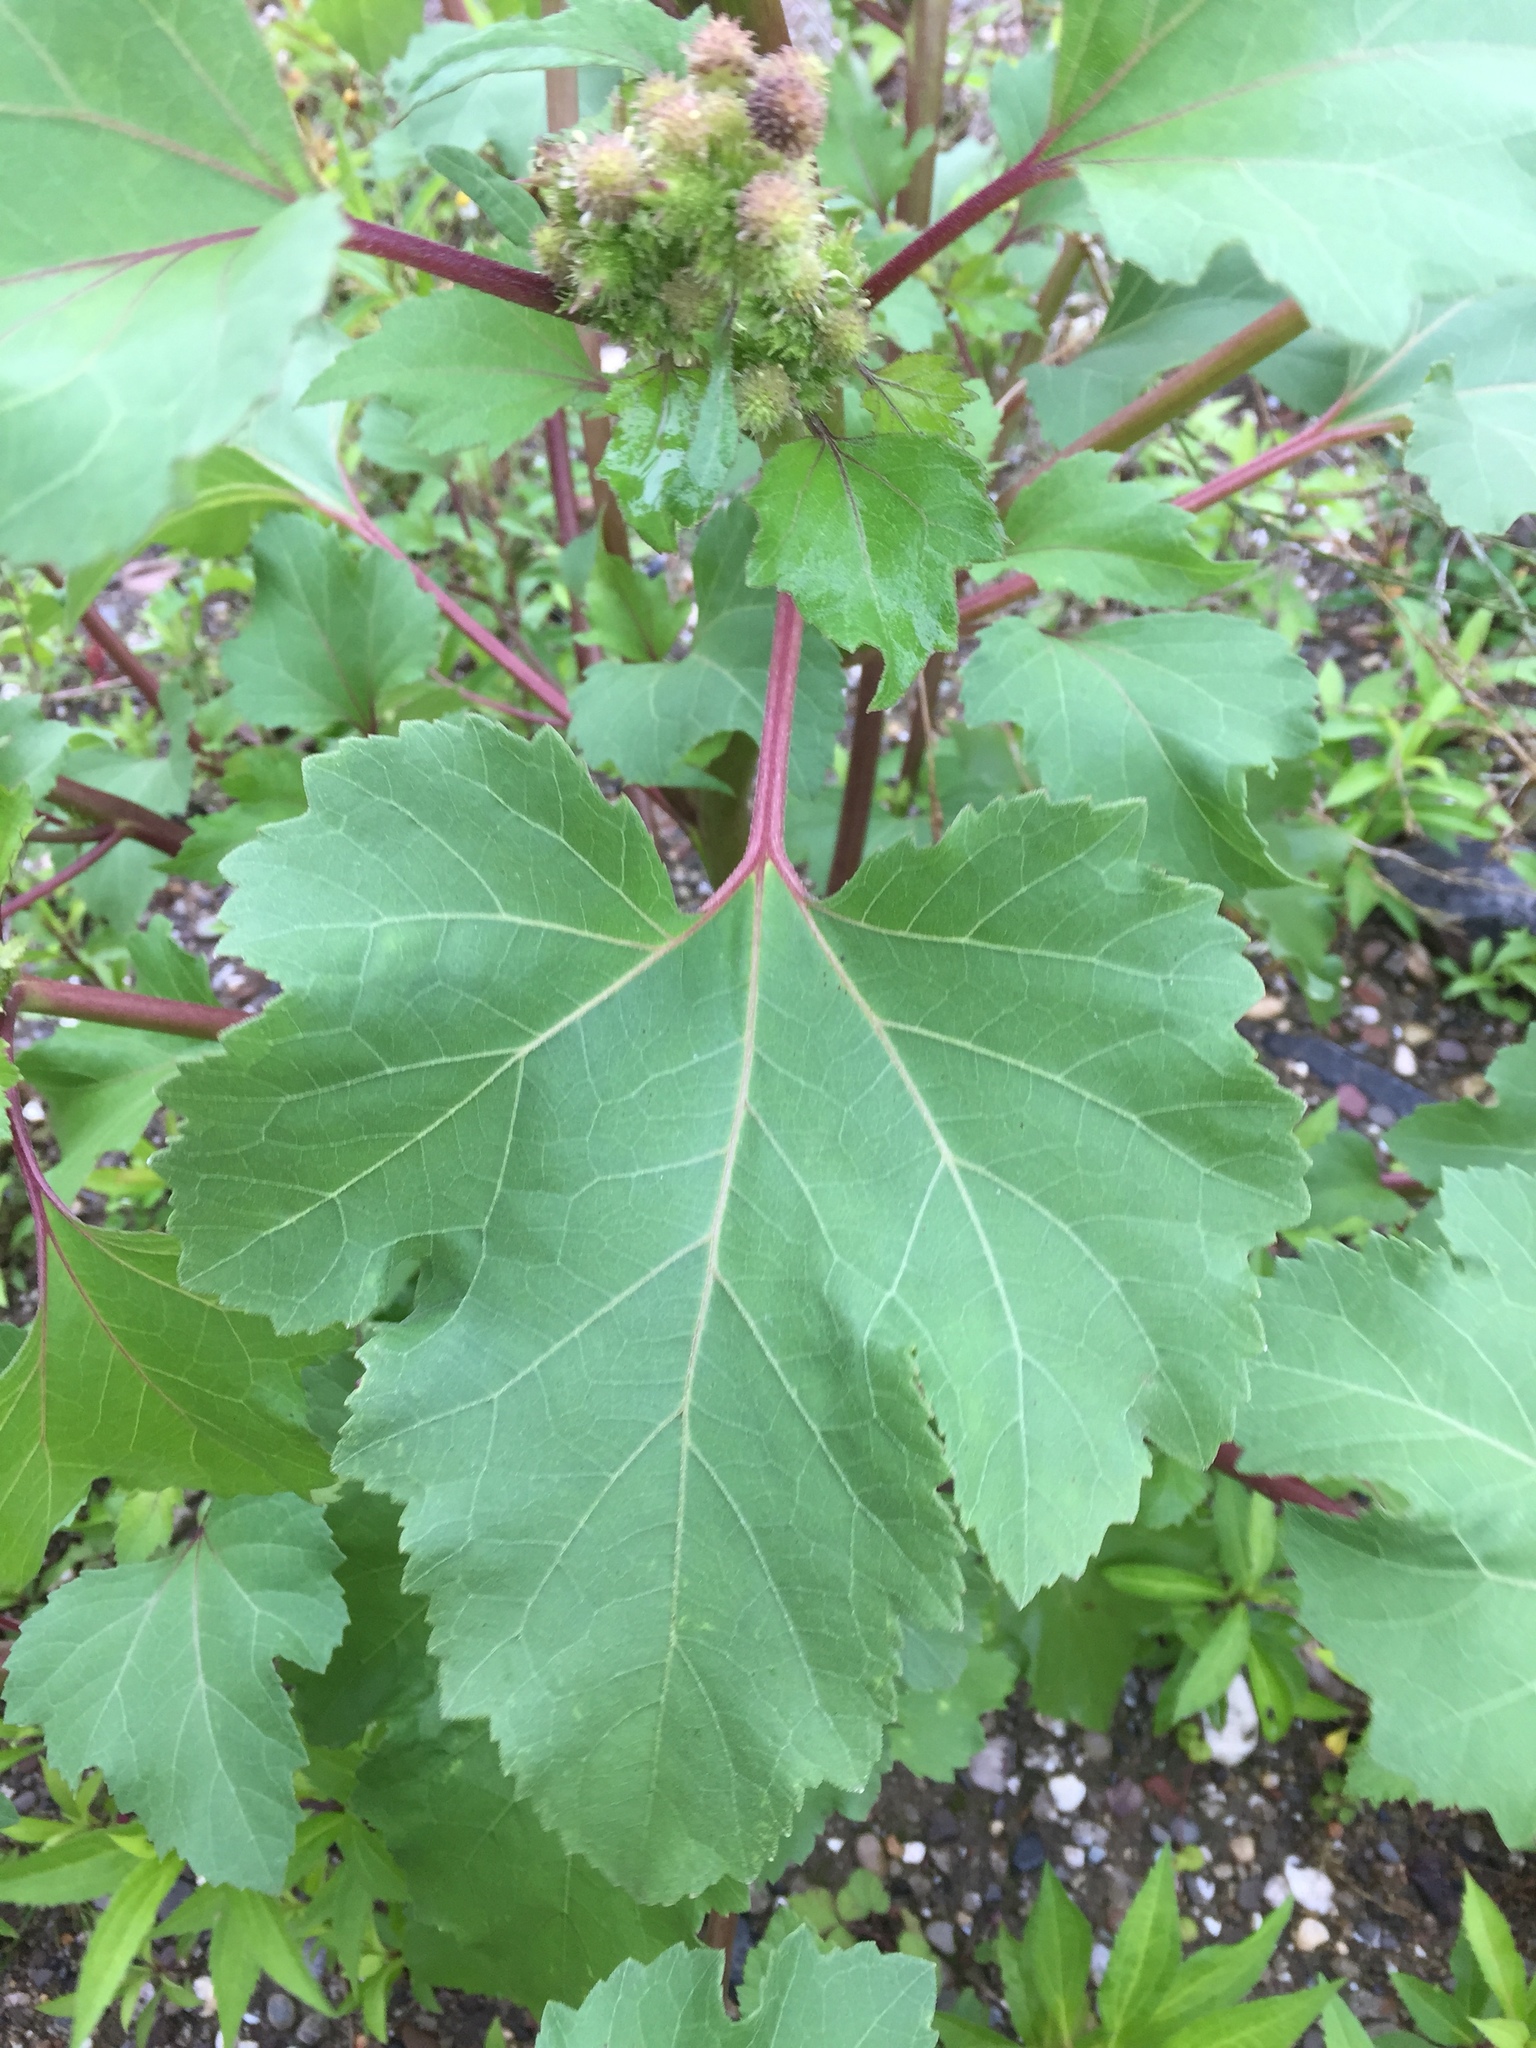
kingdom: Plantae
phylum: Tracheophyta
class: Magnoliopsida
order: Asterales
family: Asteraceae
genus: Xanthium
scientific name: Xanthium strumarium
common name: Rough cocklebur
